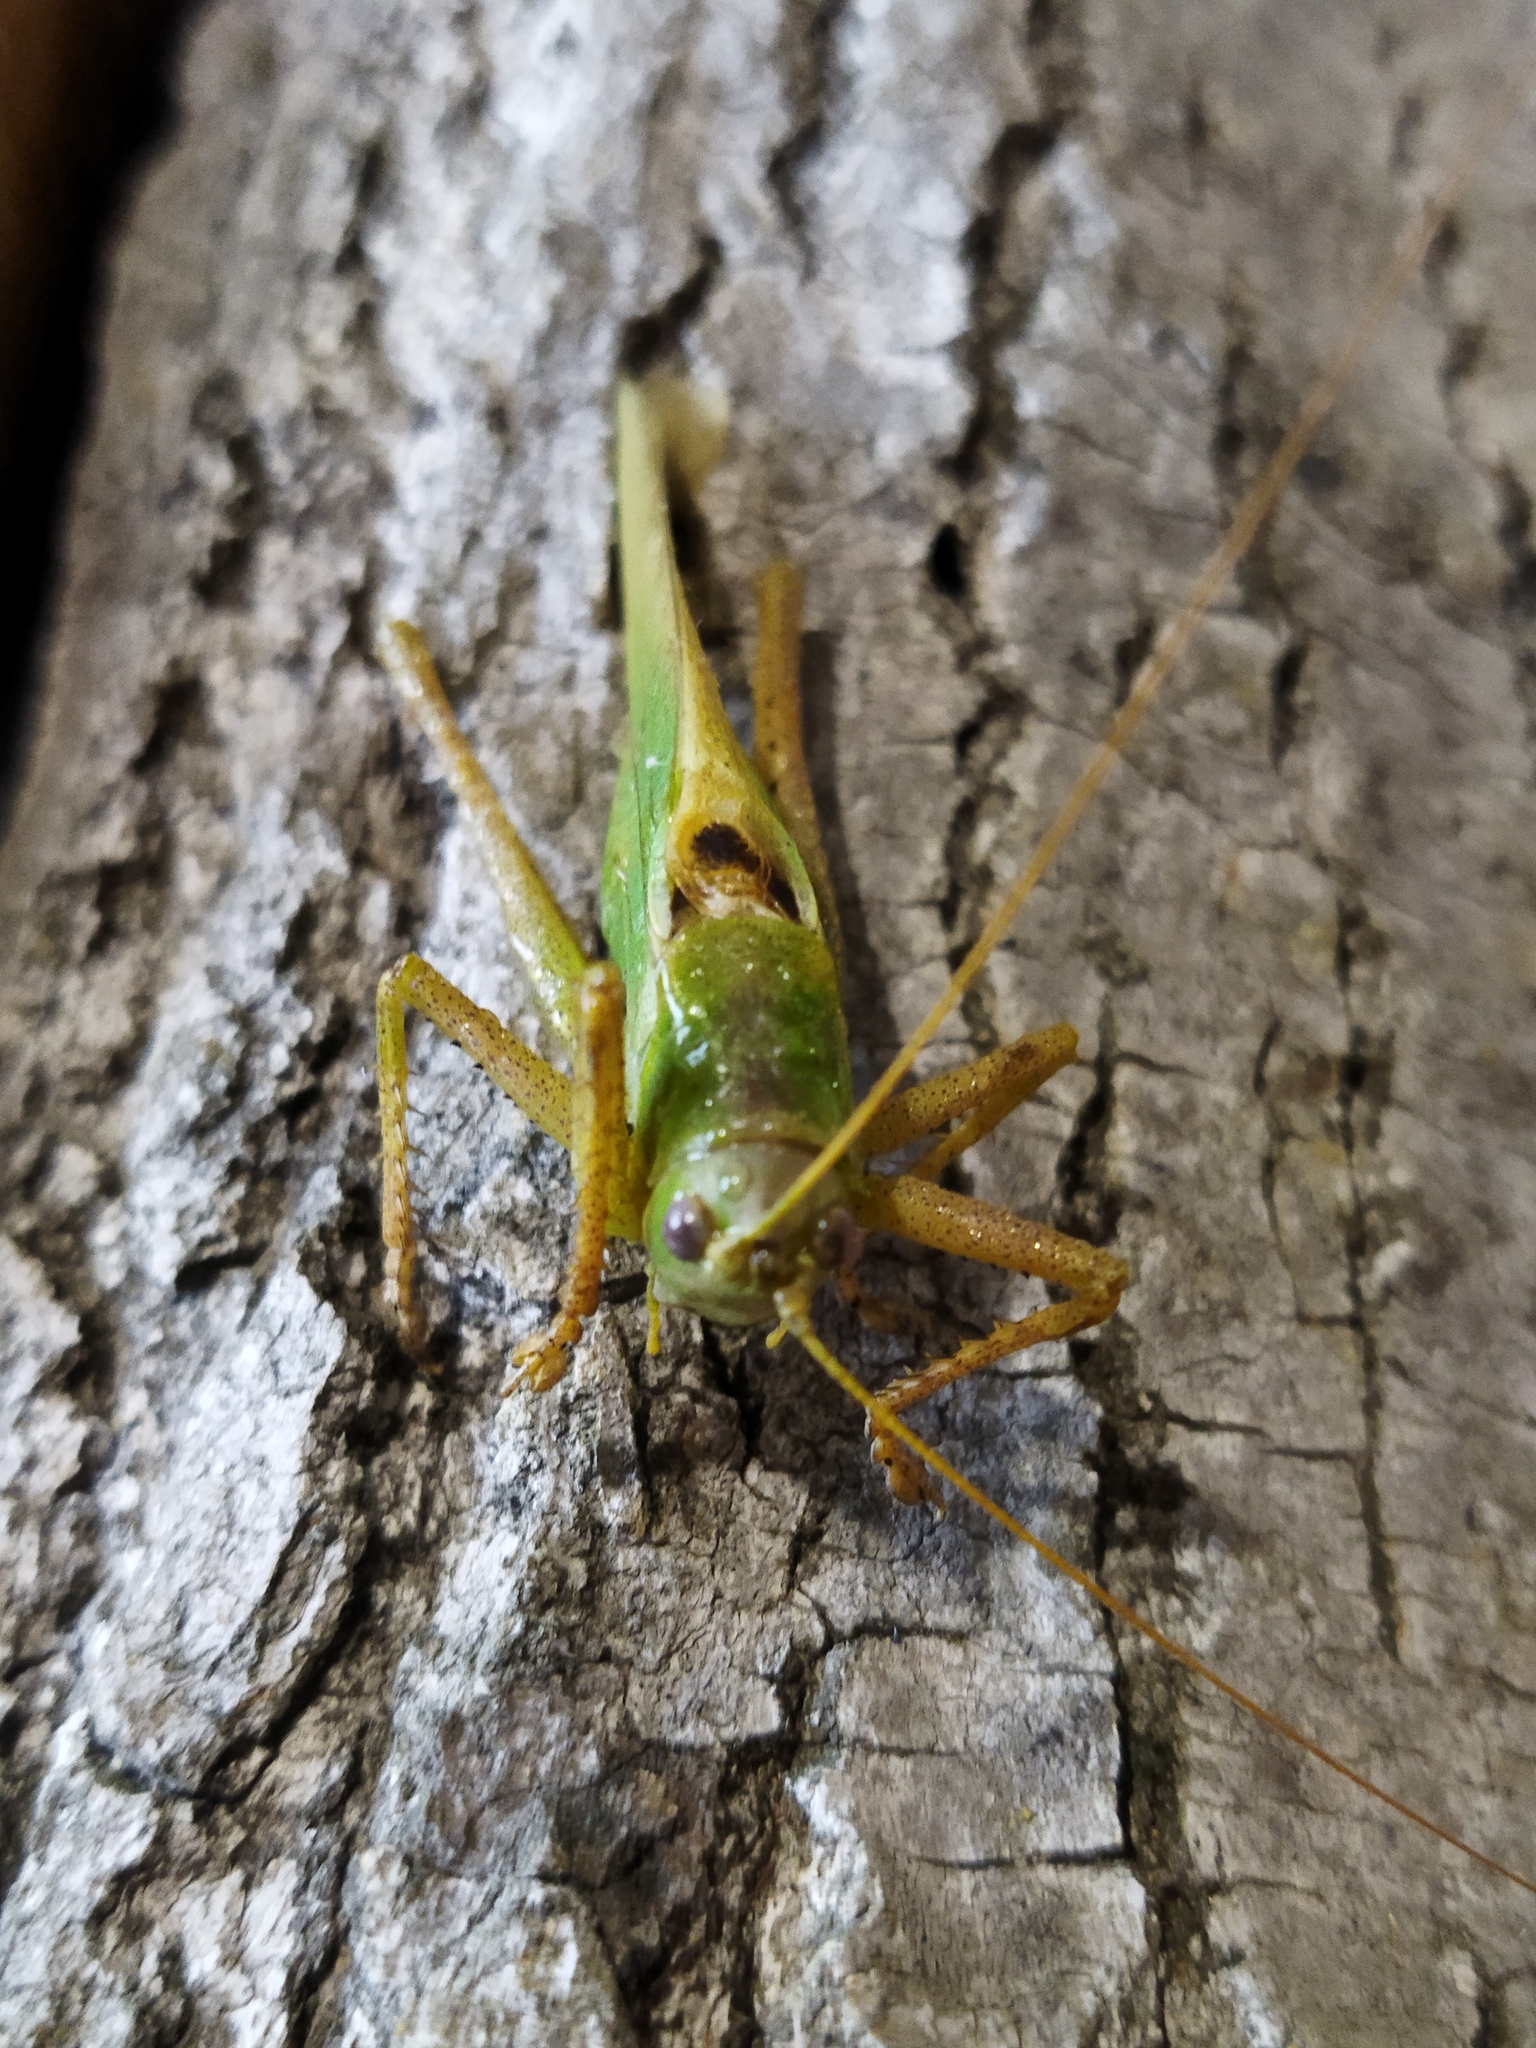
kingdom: Animalia
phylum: Arthropoda
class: Insecta
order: Orthoptera
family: Tettigoniidae
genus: Tettigonia
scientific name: Tettigonia caudata
